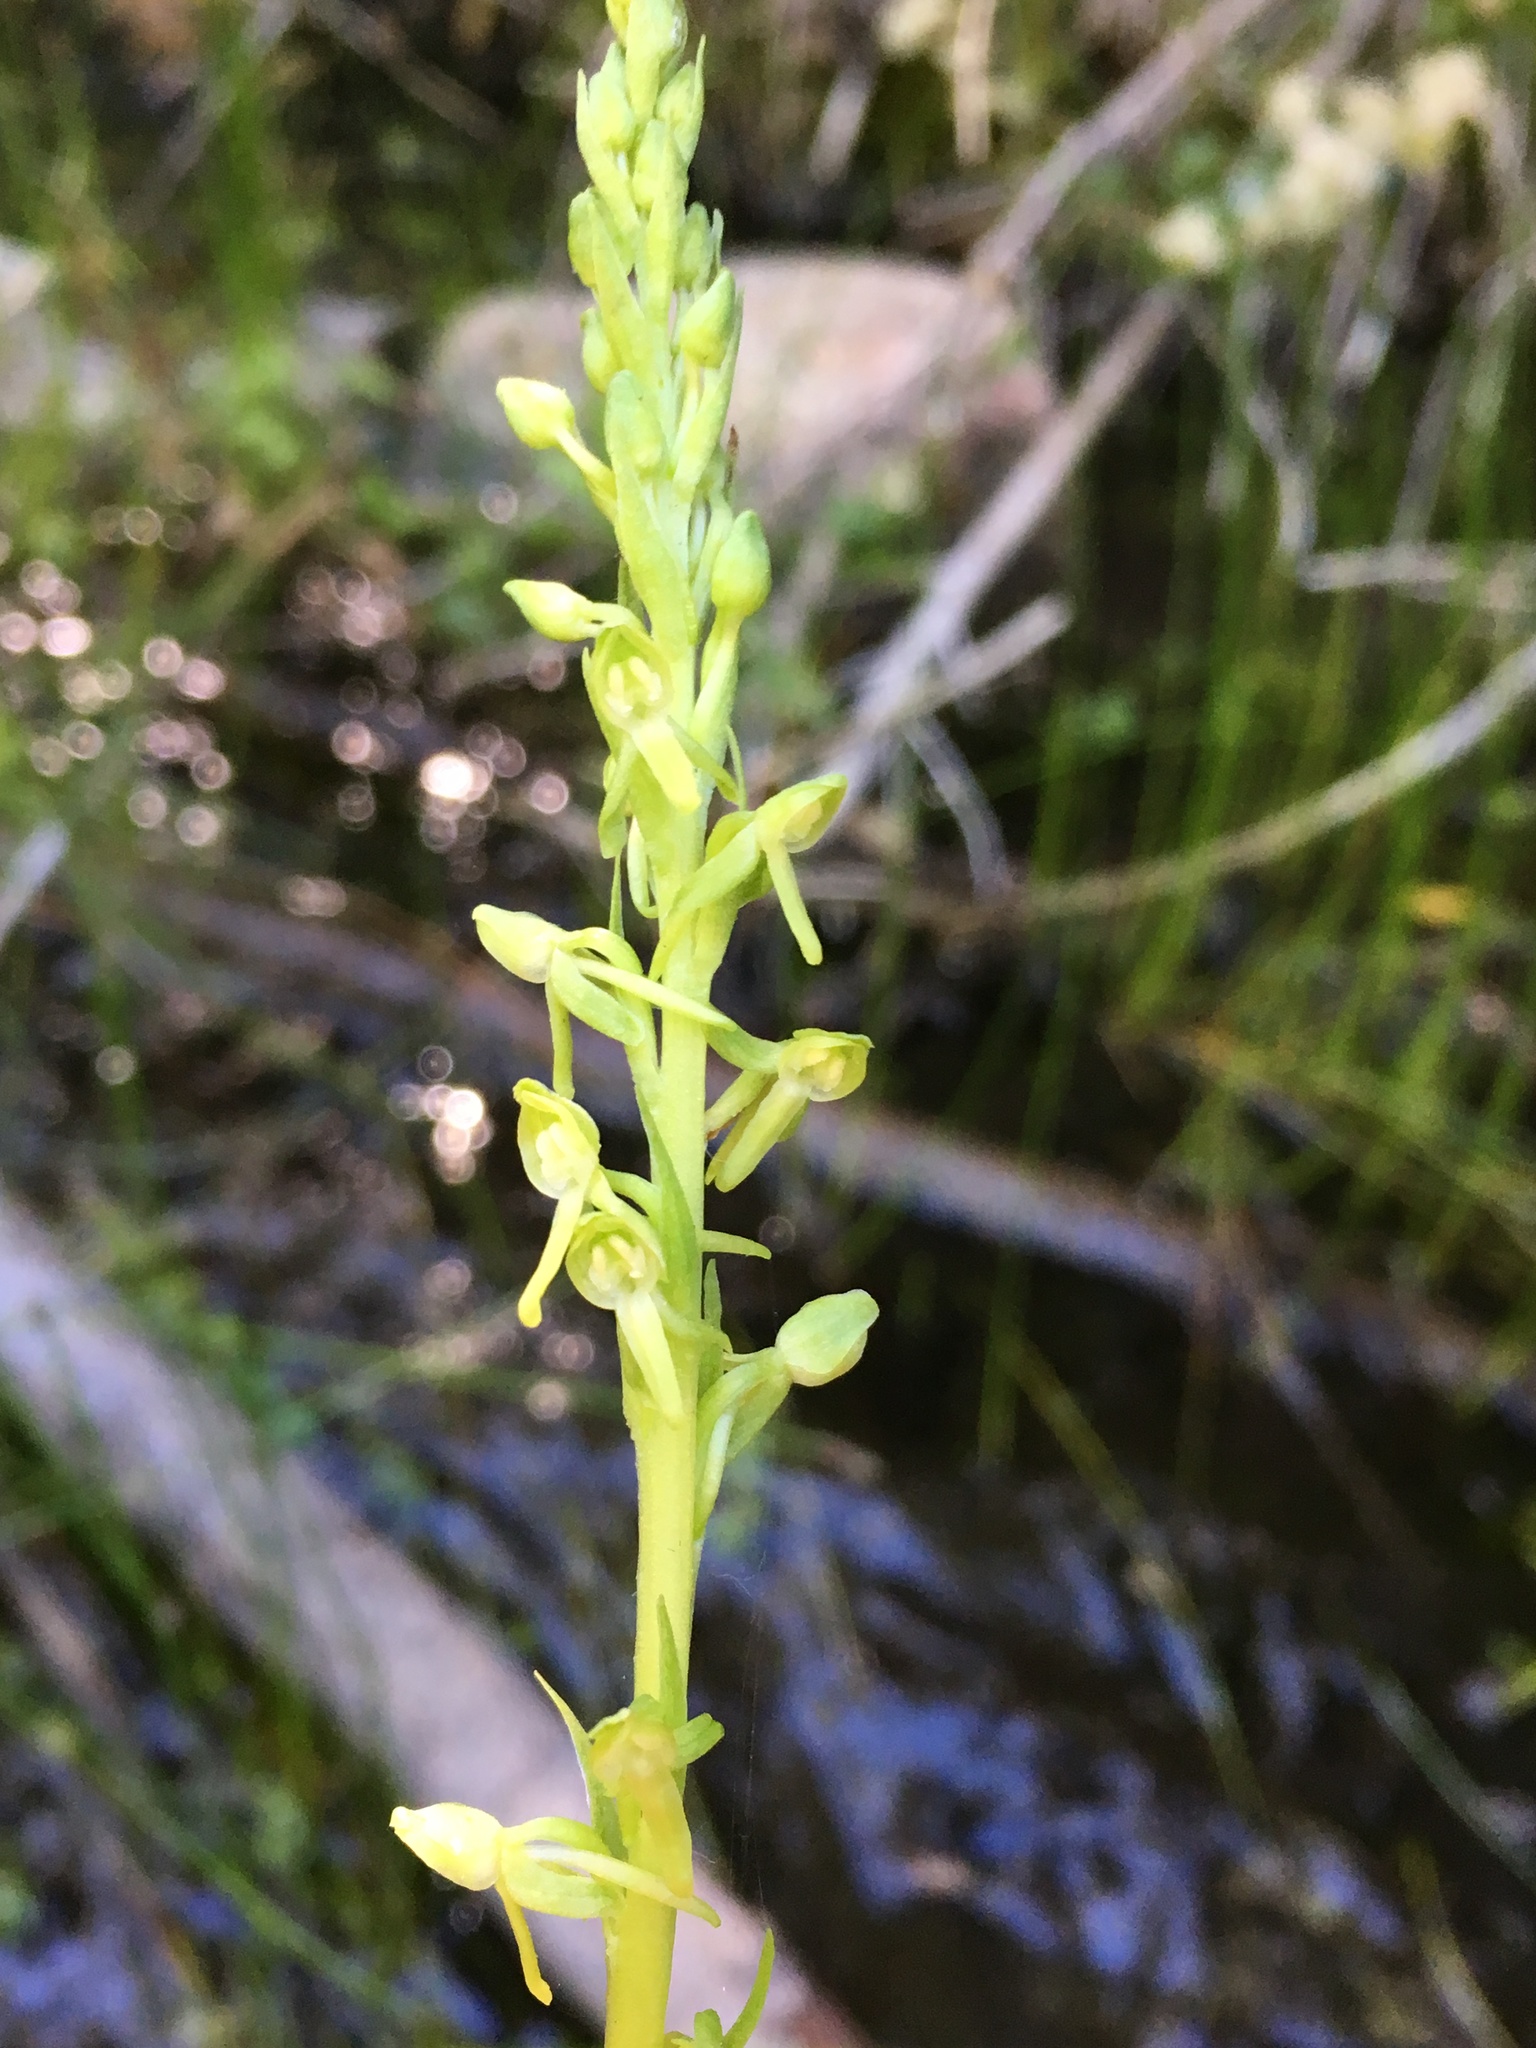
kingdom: Plantae
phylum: Tracheophyta
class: Liliopsida
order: Asparagales
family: Orchidaceae
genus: Platanthera
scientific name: Platanthera sparsiflora
